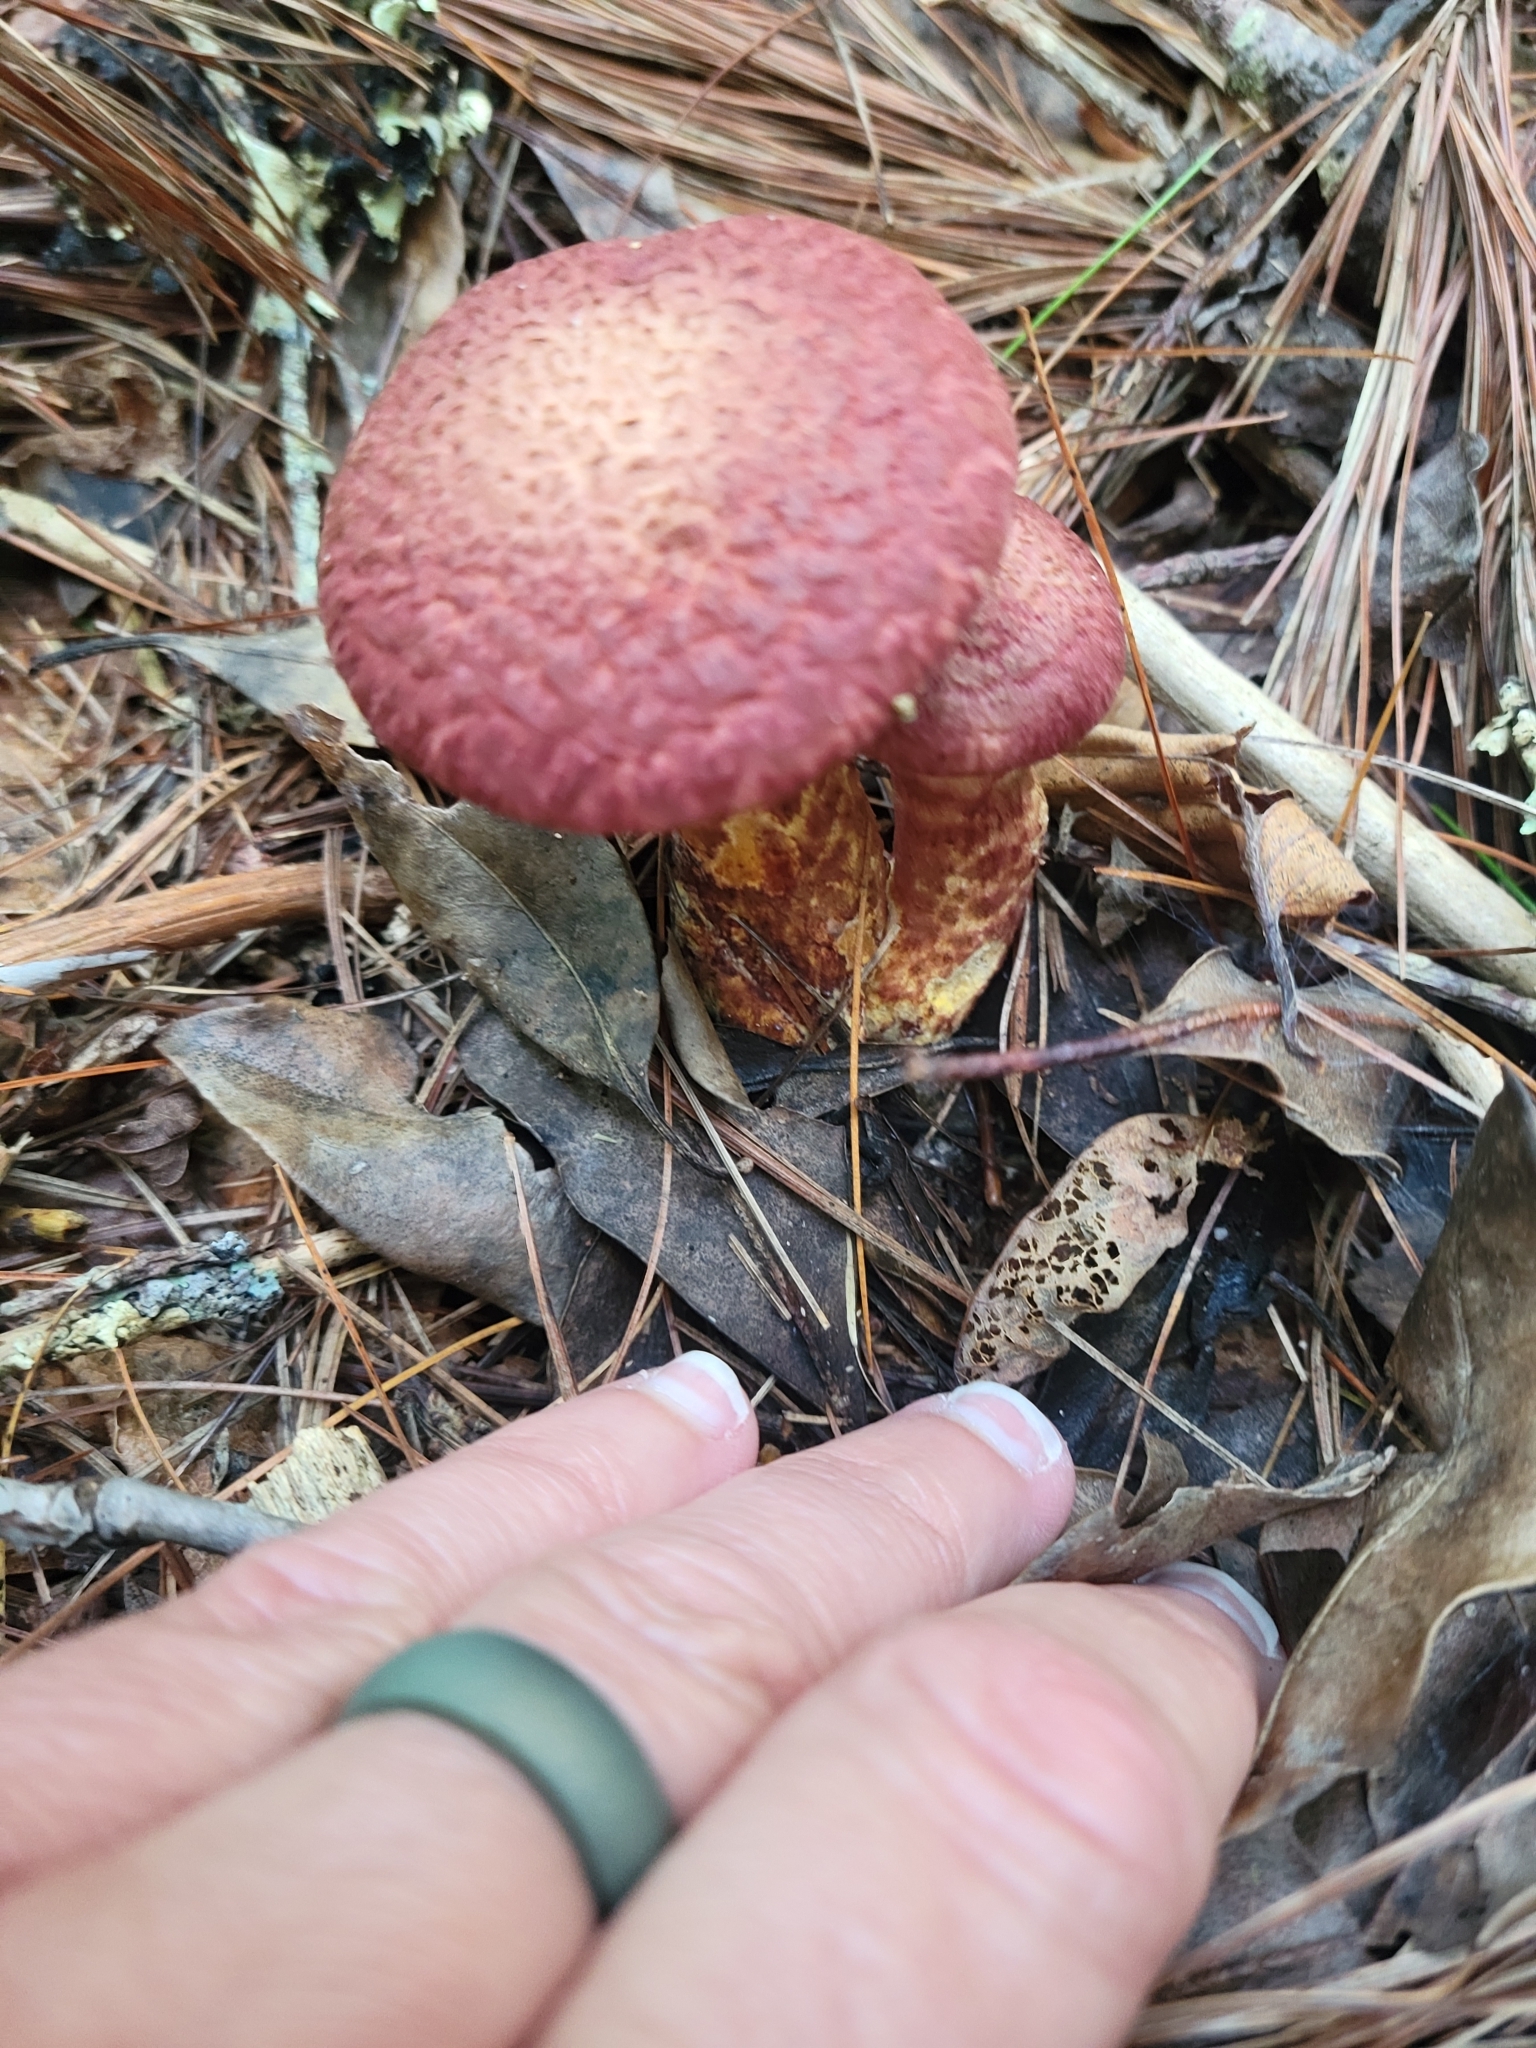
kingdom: Fungi
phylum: Basidiomycota
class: Agaricomycetes
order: Boletales
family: Suillaceae
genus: Suillus
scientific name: Suillus spraguei
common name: Painted suillus
